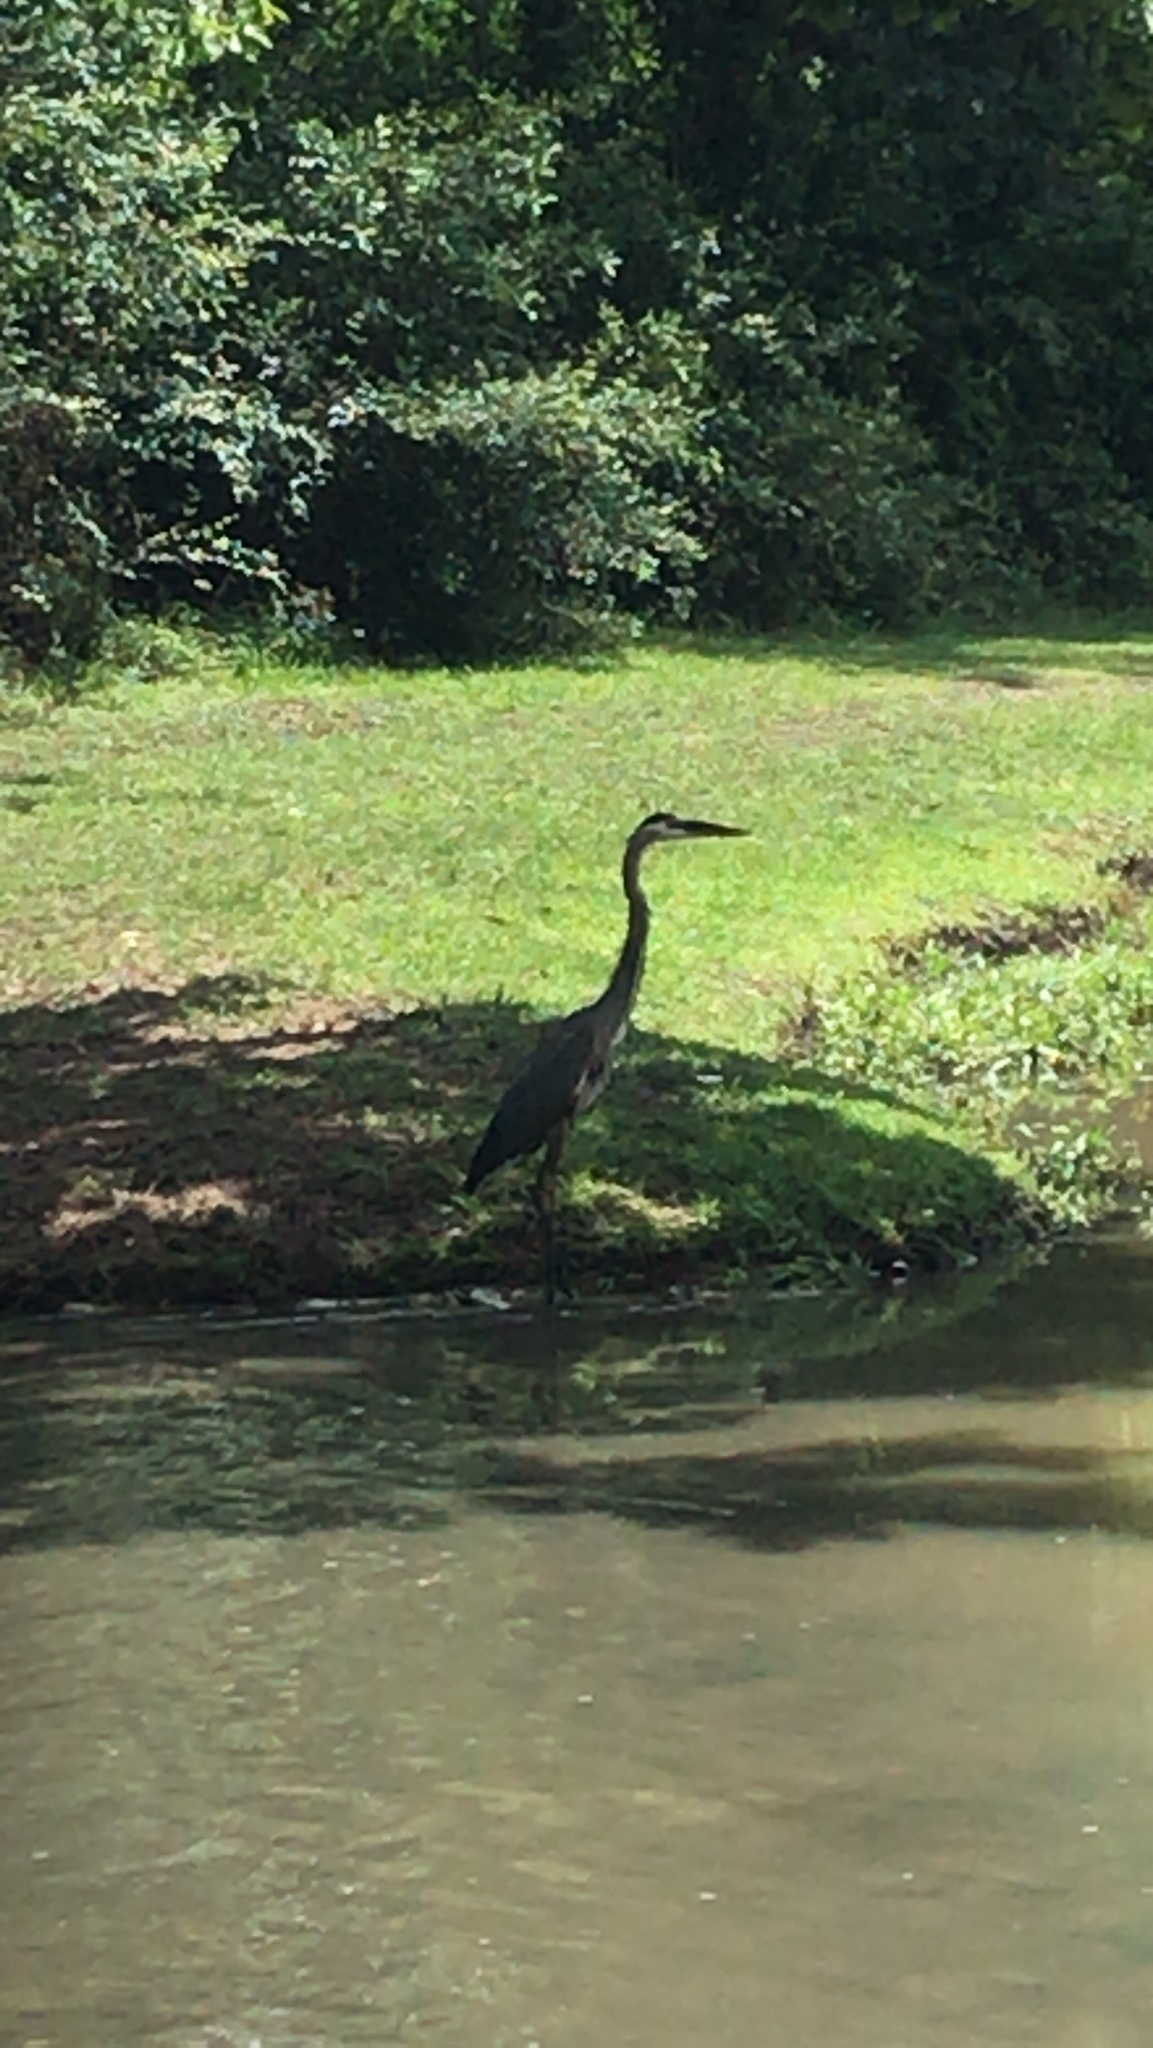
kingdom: Animalia
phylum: Chordata
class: Aves
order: Pelecaniformes
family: Ardeidae
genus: Ardea
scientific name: Ardea herodias
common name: Great blue heron
